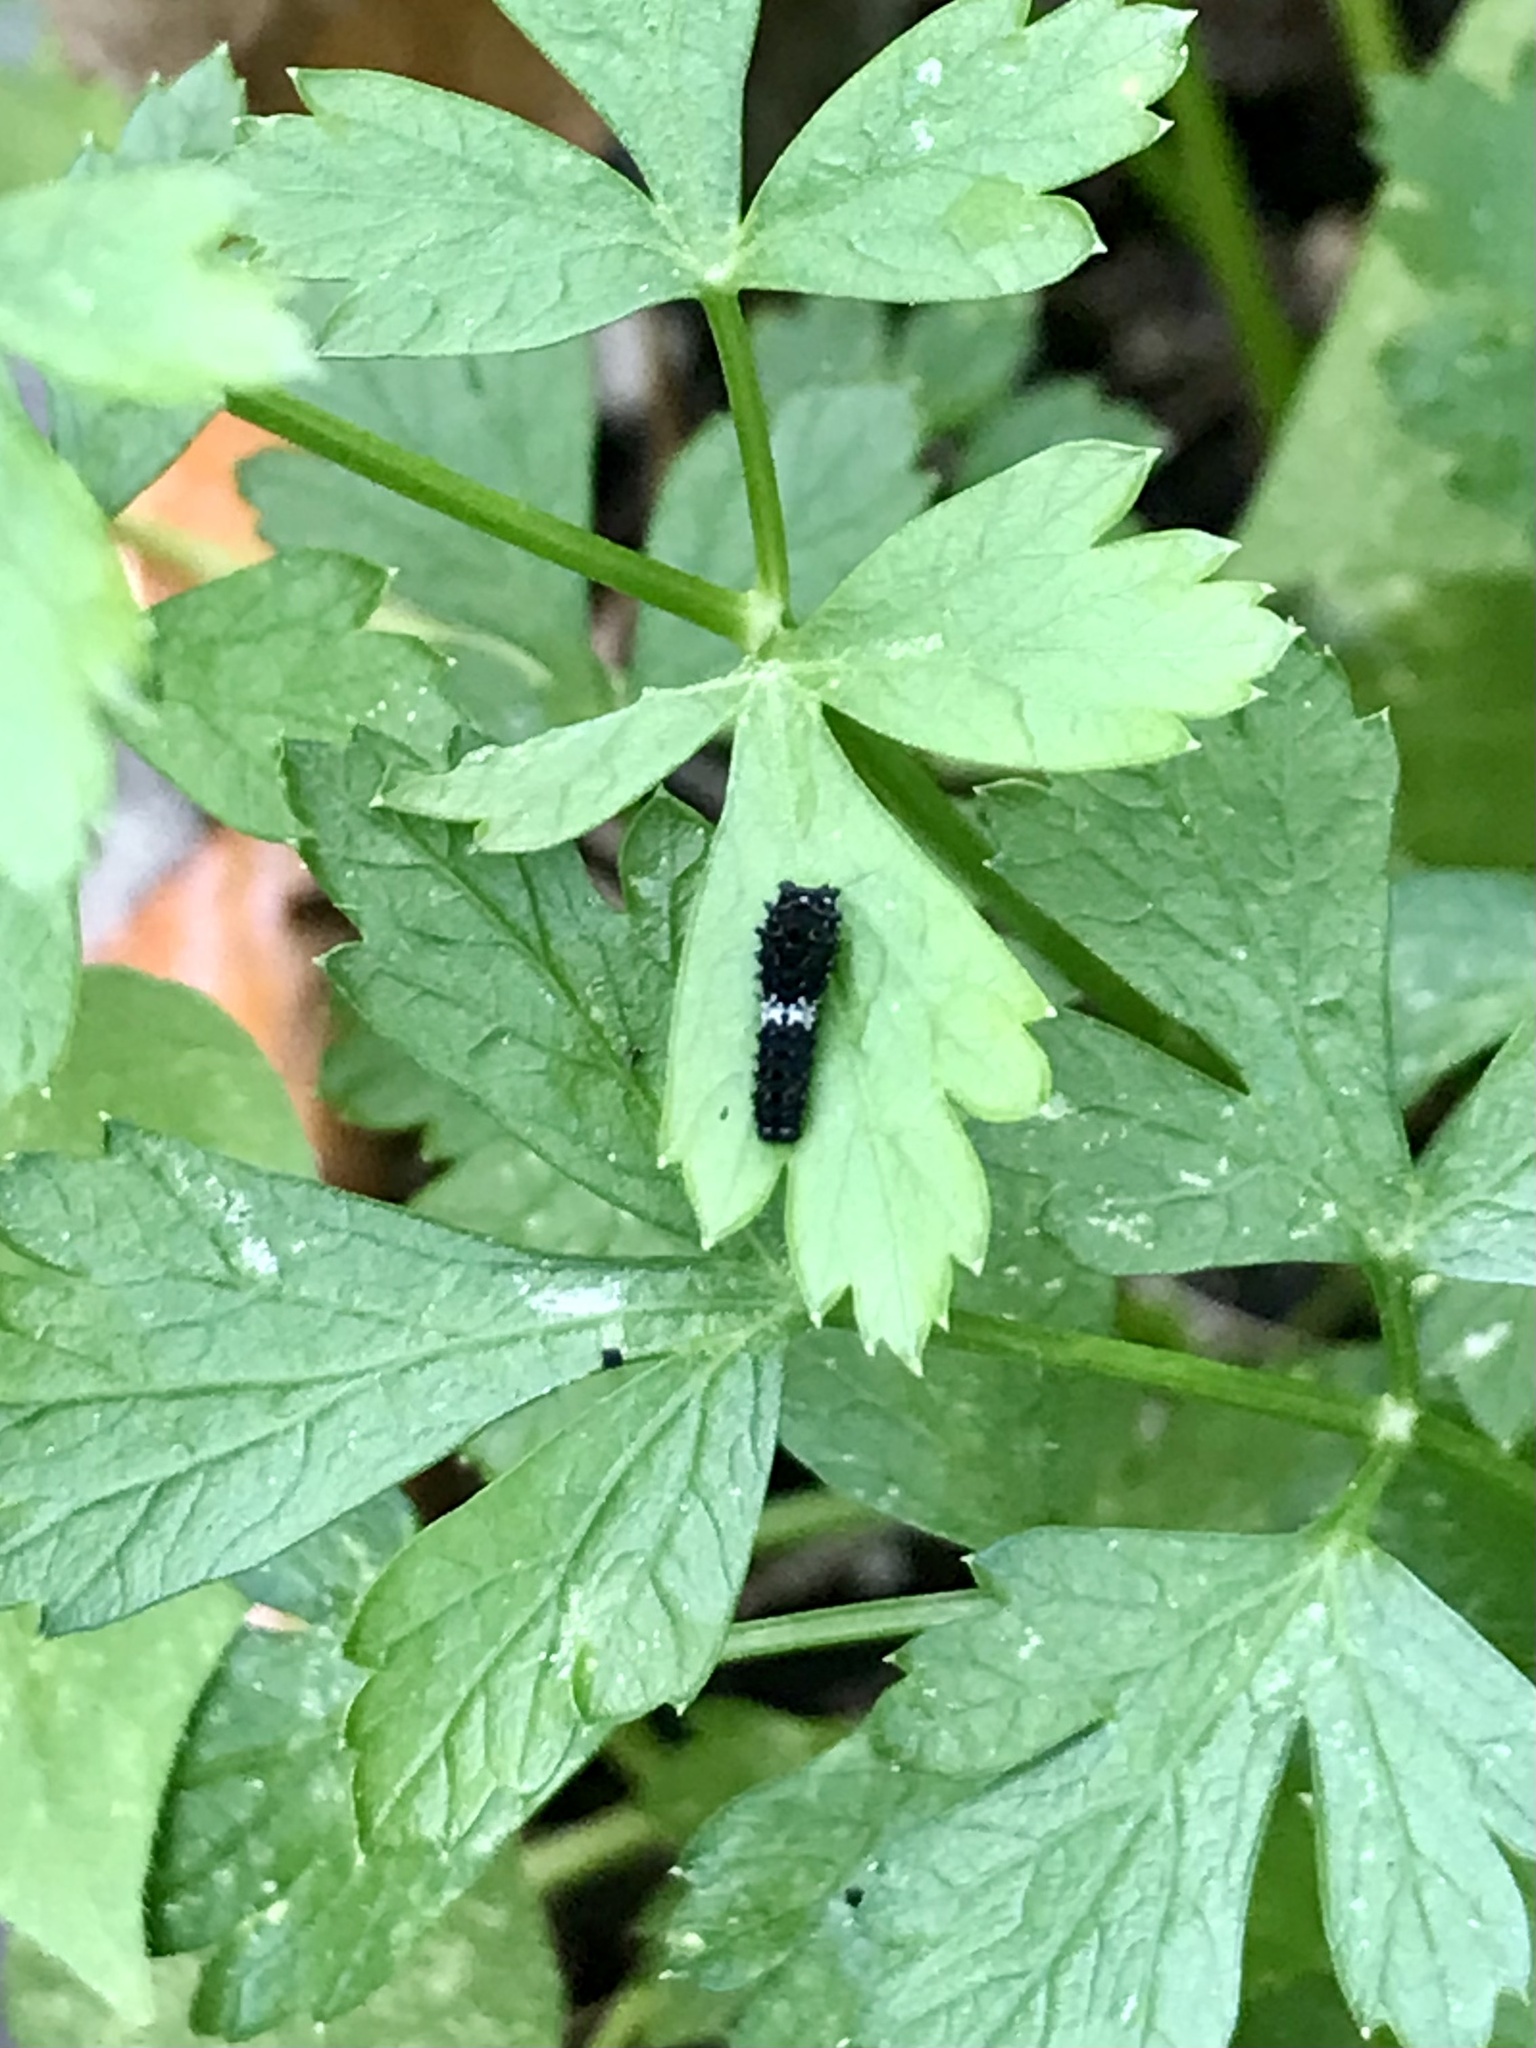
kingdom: Animalia
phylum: Arthropoda
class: Insecta
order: Lepidoptera
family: Papilionidae
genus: Papilio
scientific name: Papilio polyxenes
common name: Black swallowtail
